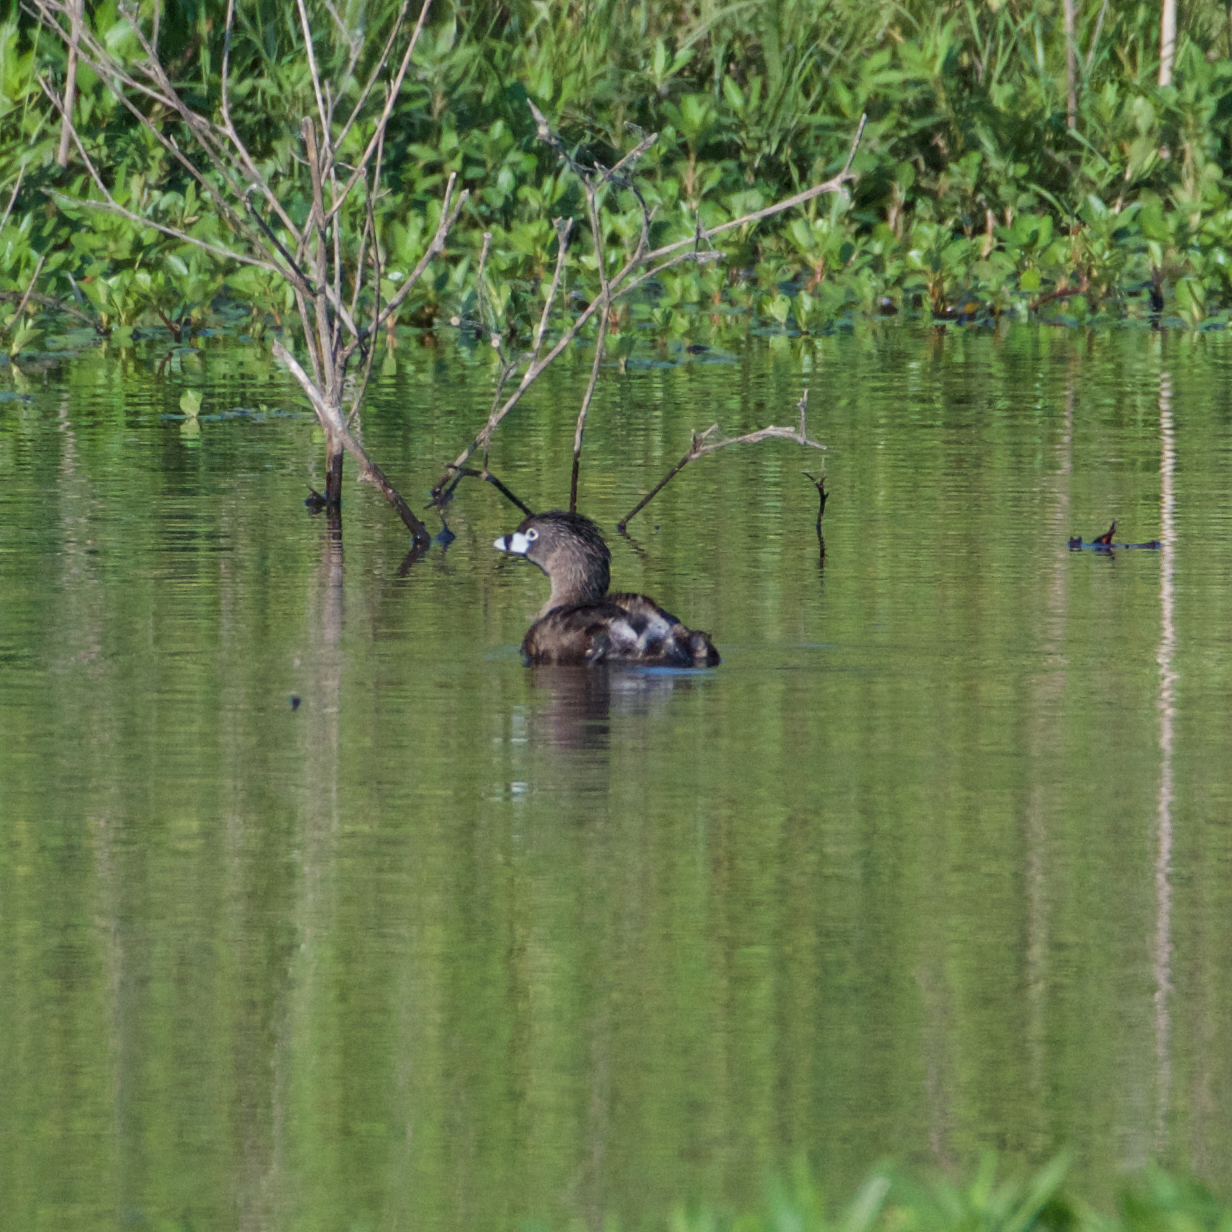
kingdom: Animalia
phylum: Chordata
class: Aves
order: Podicipediformes
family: Podicipedidae
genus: Podilymbus
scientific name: Podilymbus podiceps
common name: Pied-billed grebe
